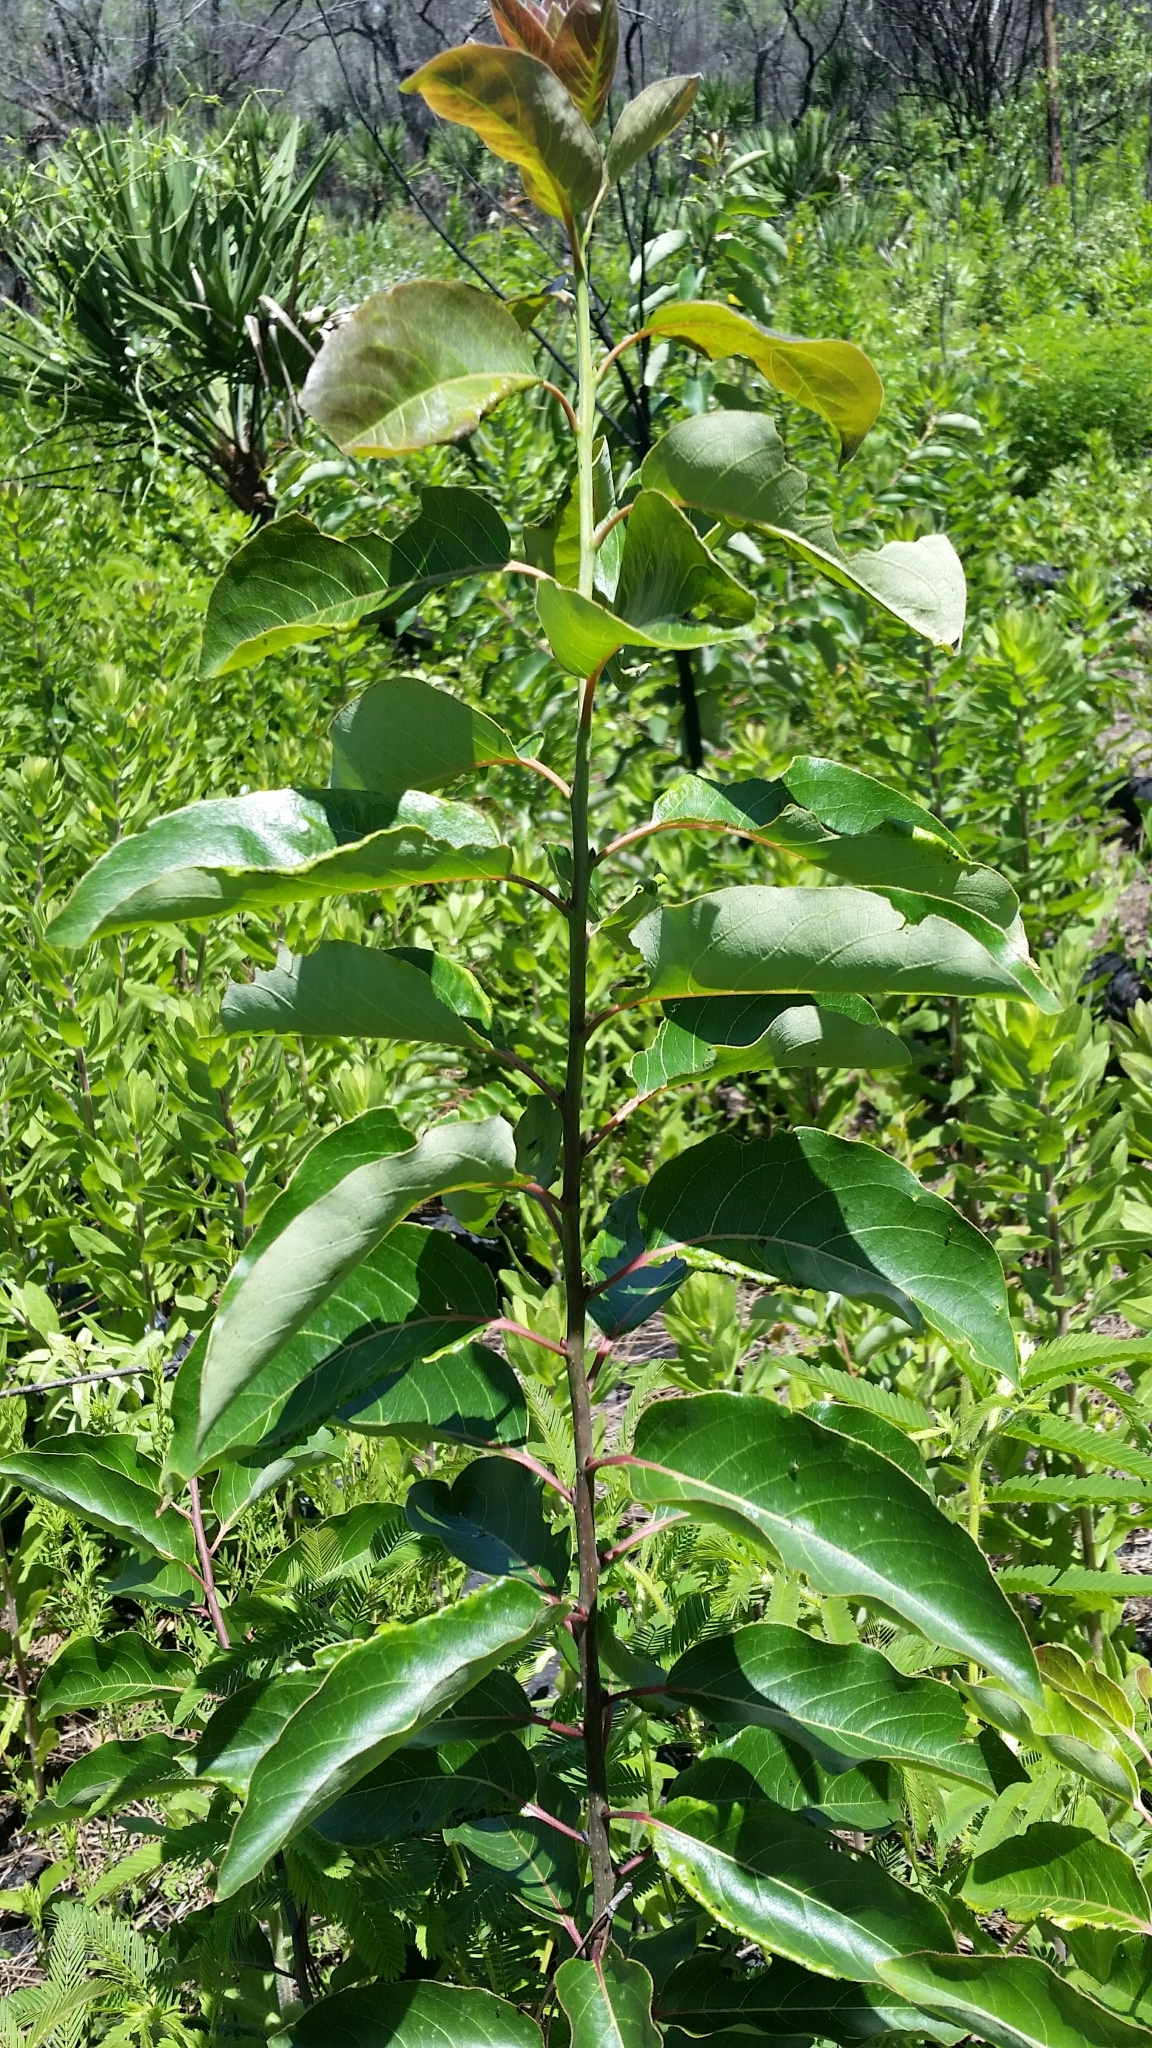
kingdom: Plantae
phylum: Tracheophyta
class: Magnoliopsida
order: Ericales
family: Ebenaceae
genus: Diospyros
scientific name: Diospyros virginiana
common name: Persimmon
